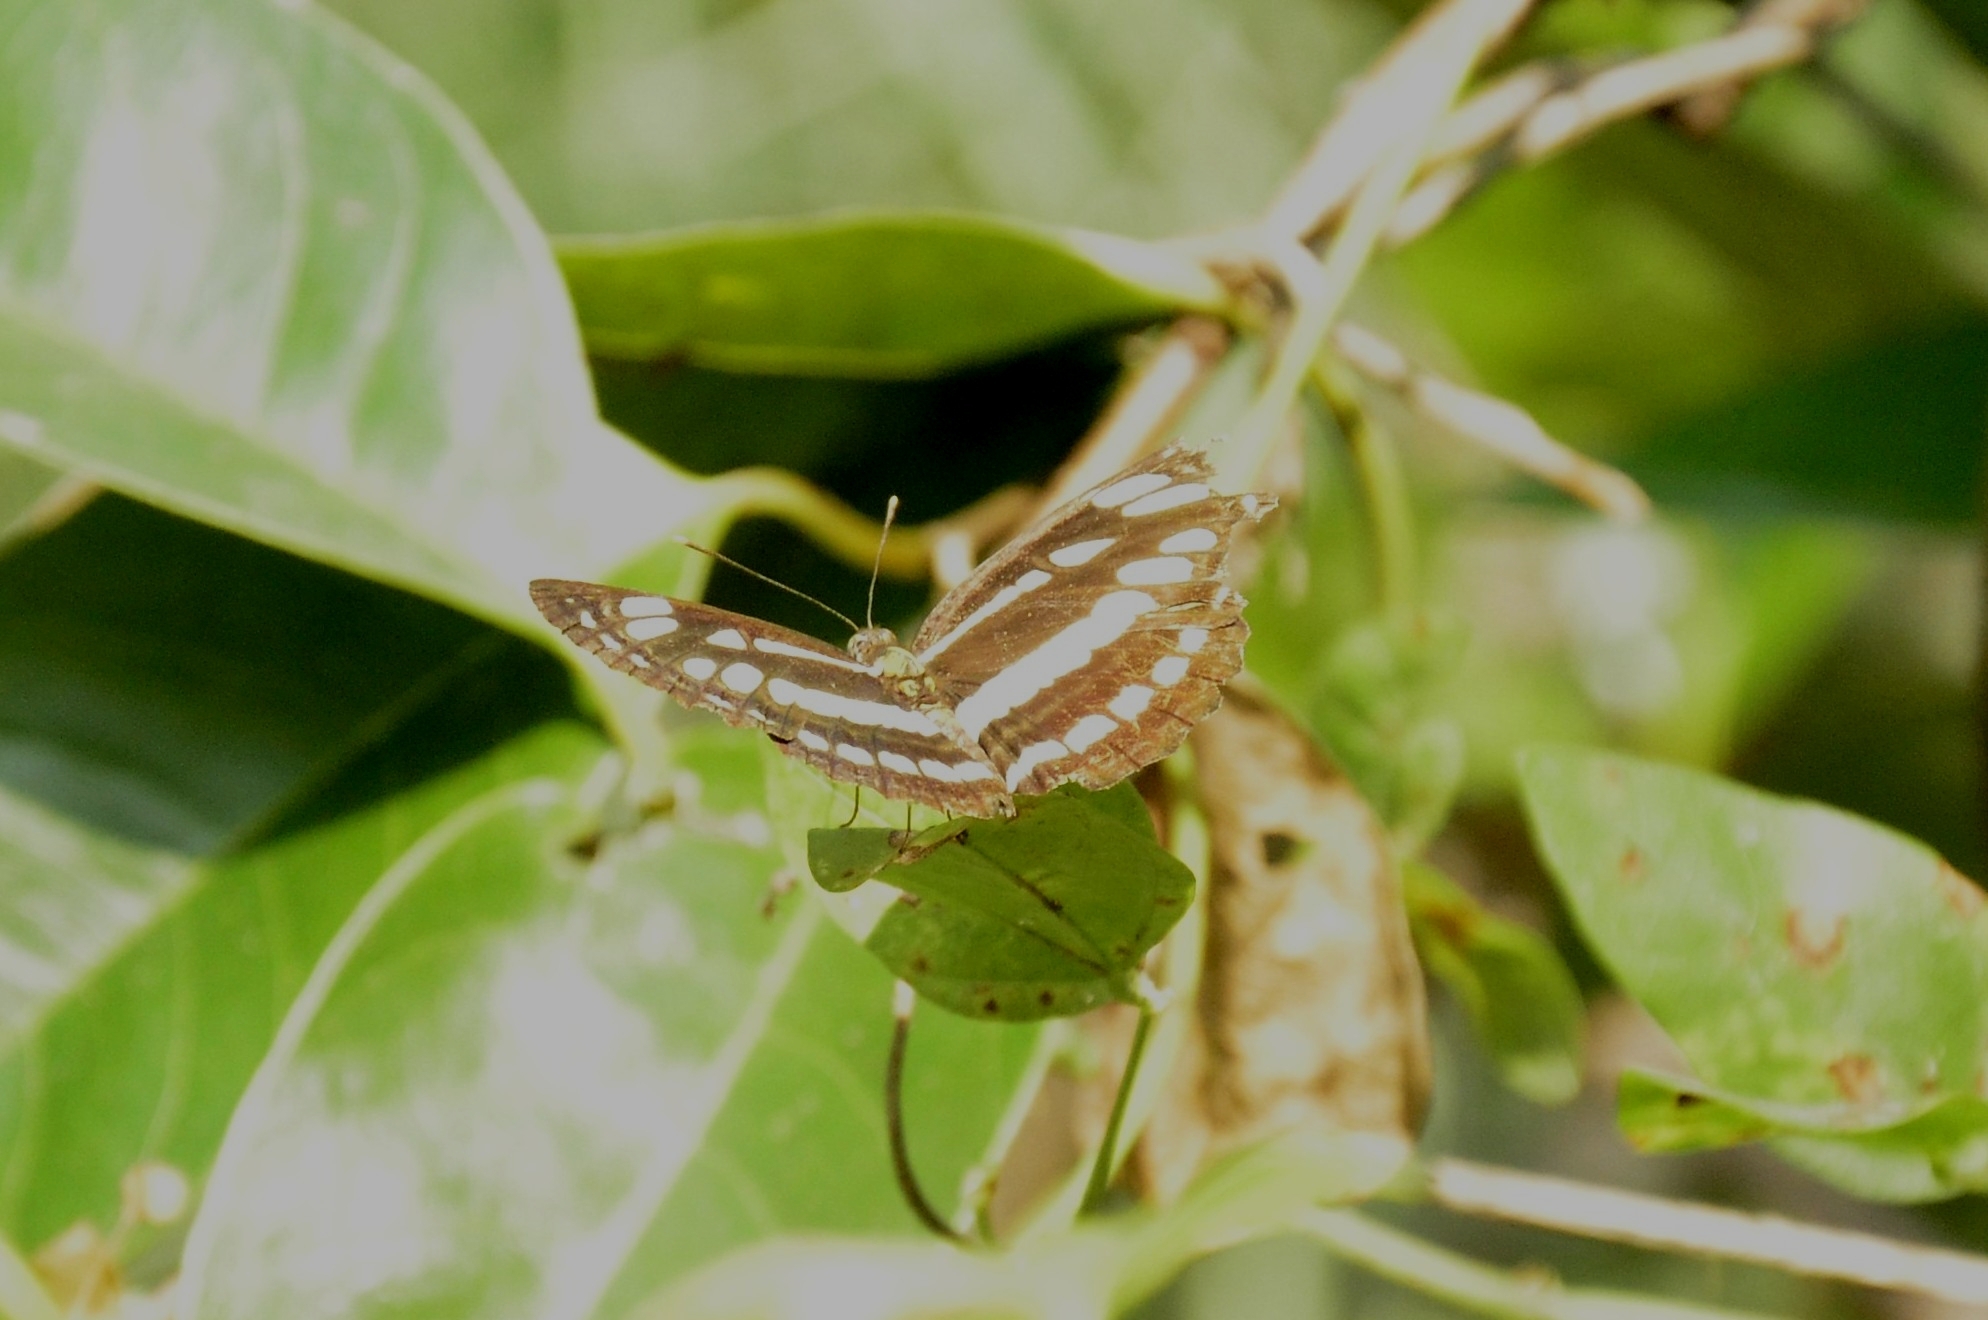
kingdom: Animalia
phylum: Arthropoda
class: Insecta
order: Lepidoptera
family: Nymphalidae
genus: Neptis
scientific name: Neptis hylas
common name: Common sailer
